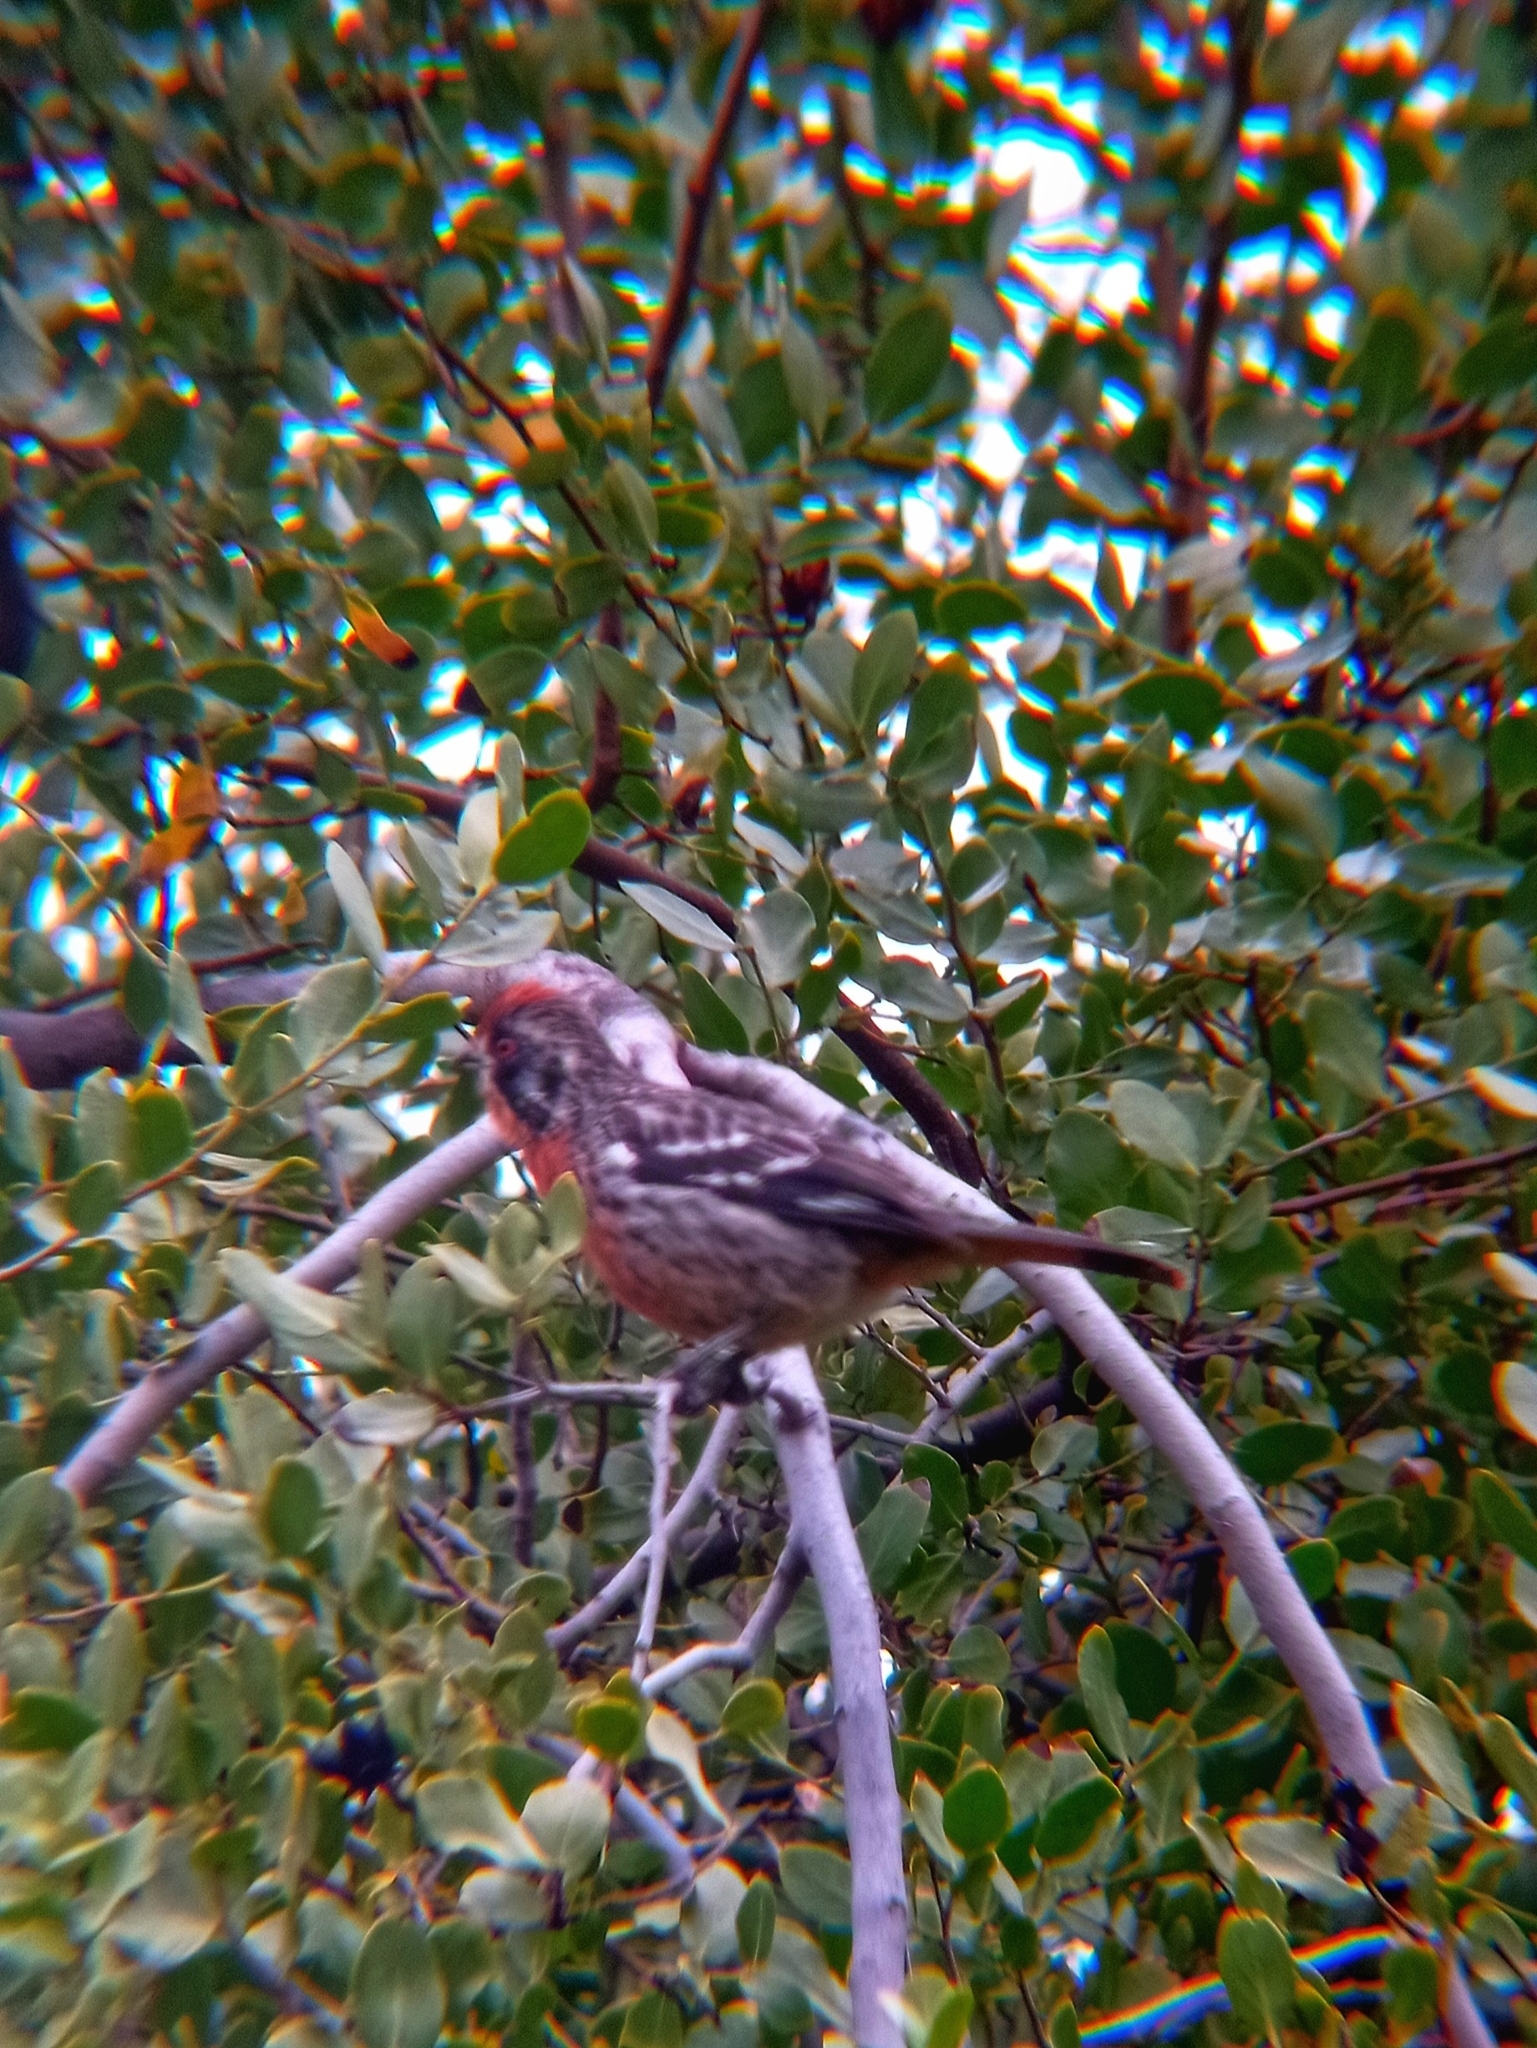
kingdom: Animalia
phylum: Chordata
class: Aves
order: Passeriformes
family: Cotingidae
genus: Phytotoma
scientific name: Phytotoma rara
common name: Rufous-tailed plantcutter
